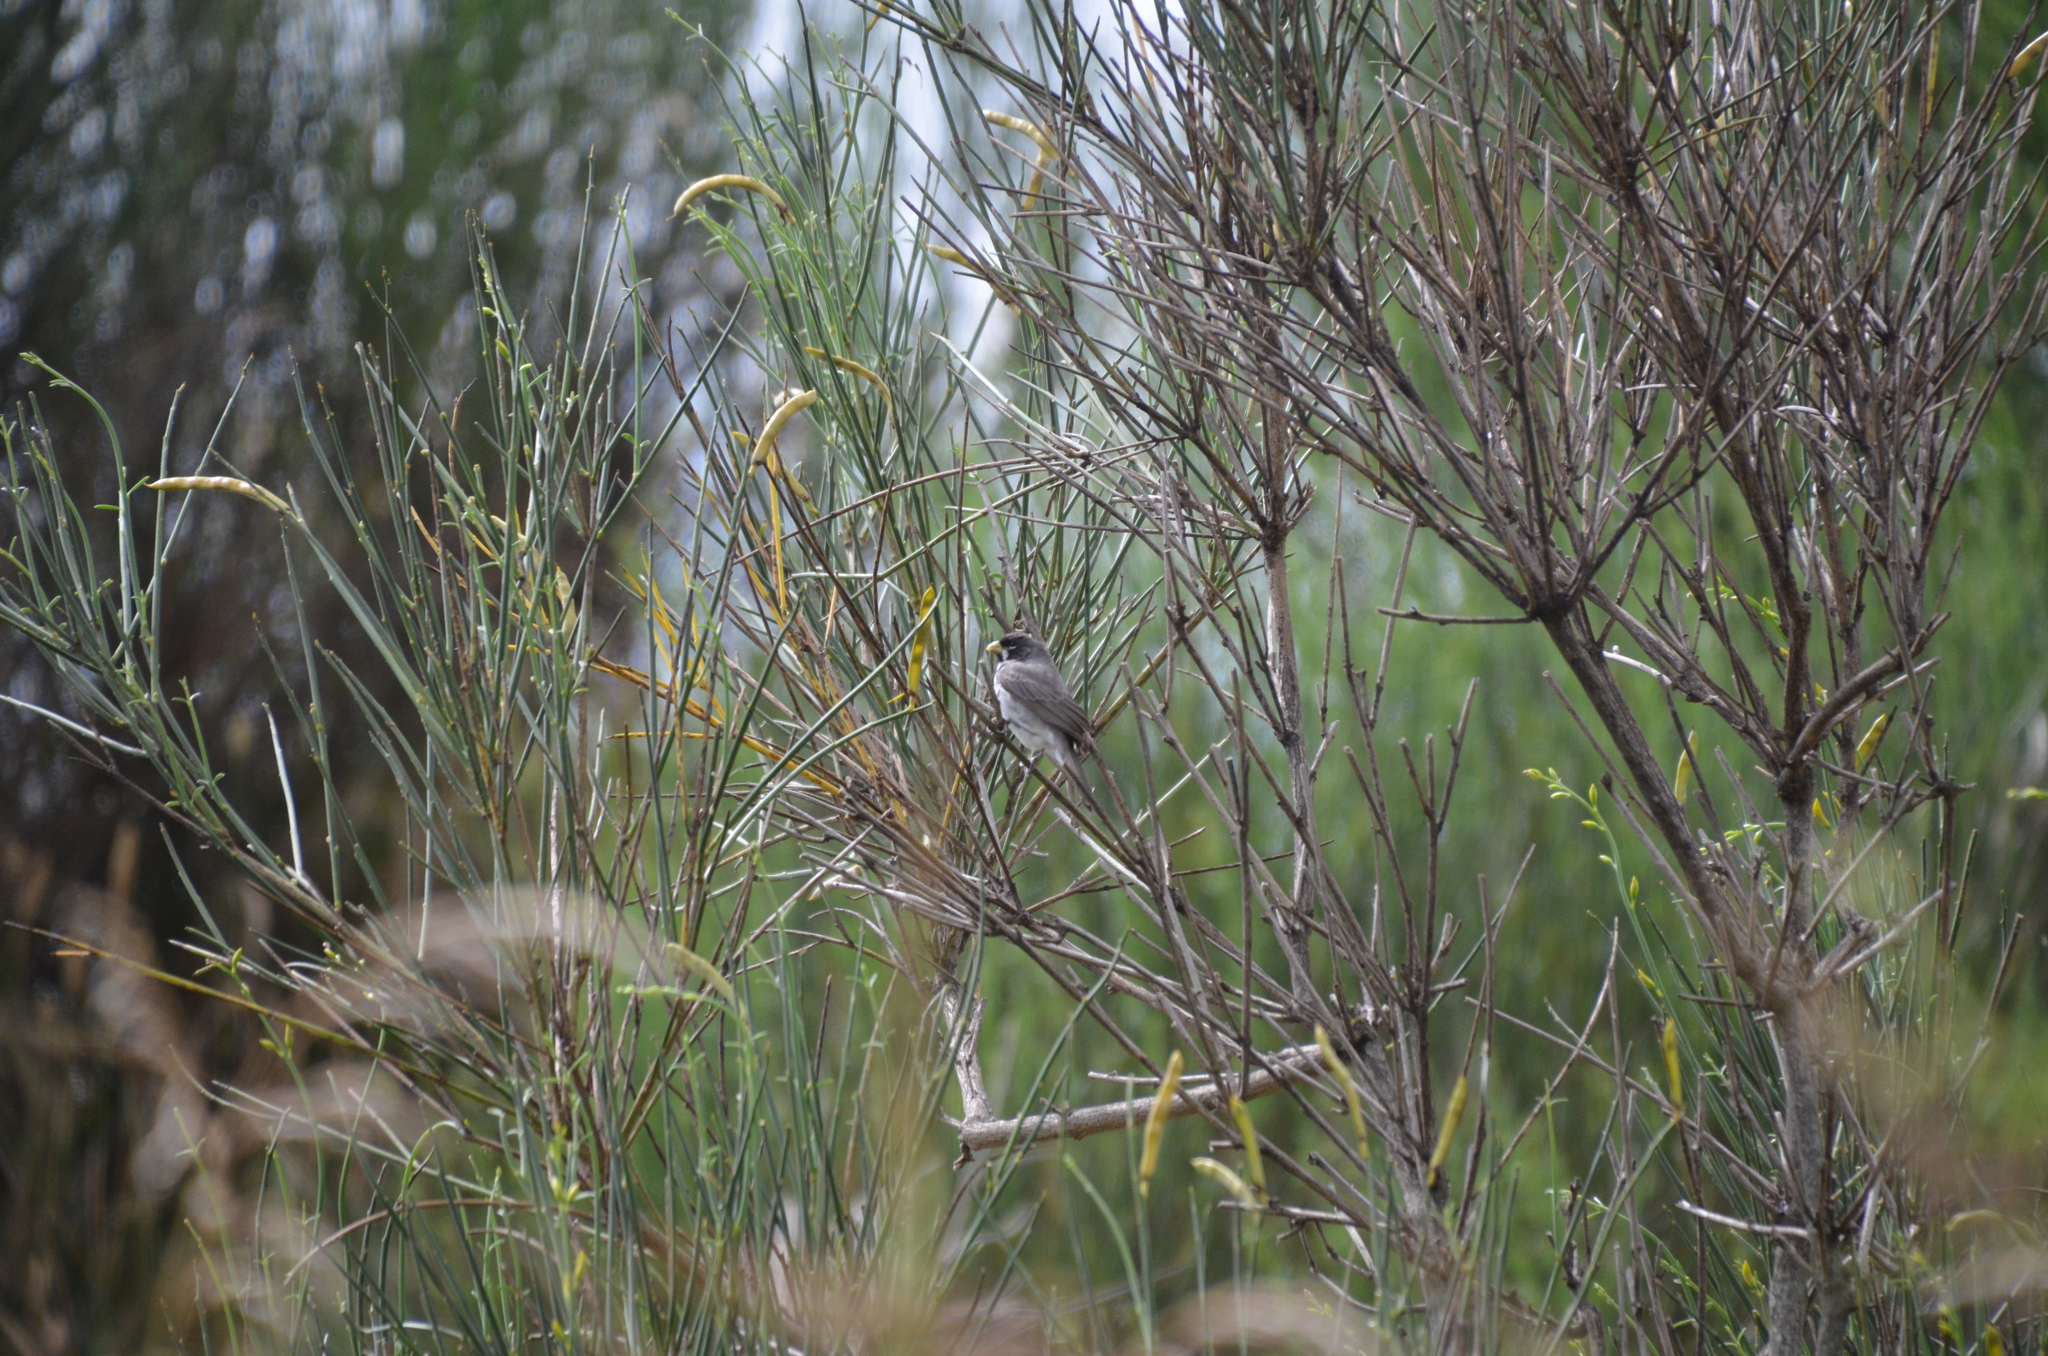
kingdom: Animalia
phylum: Chordata
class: Aves
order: Passeriformes
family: Thraupidae
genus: Sporophila
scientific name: Sporophila caerulescens
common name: Double-collared seedeater
